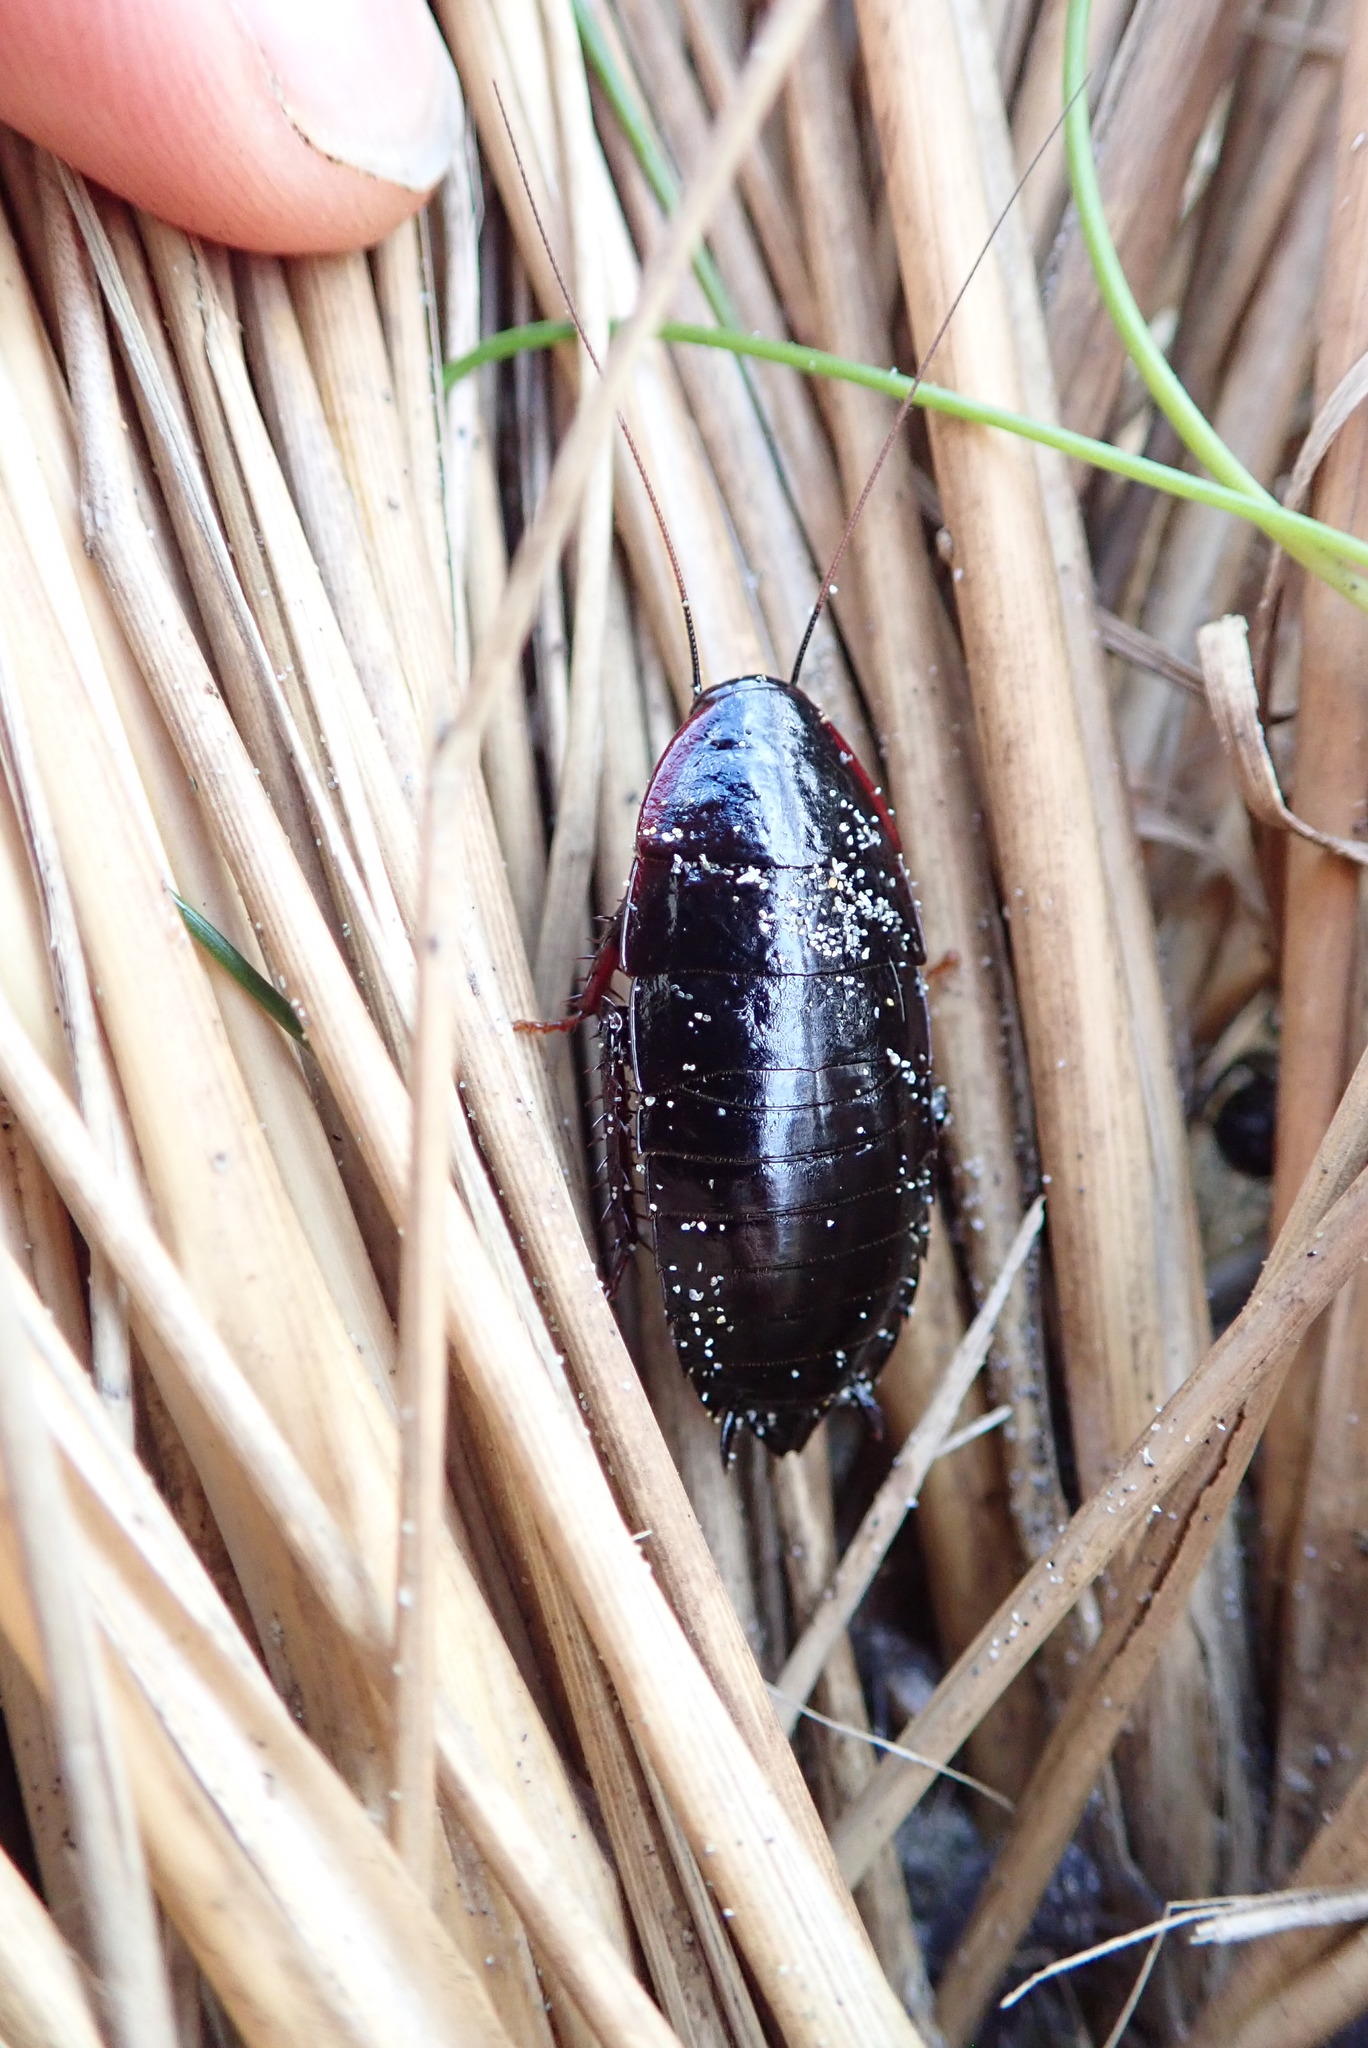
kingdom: Animalia
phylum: Arthropoda
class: Insecta
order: Blattodea
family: Blattidae
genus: Maoriblatta
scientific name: Maoriblatta novaeseelandiae
